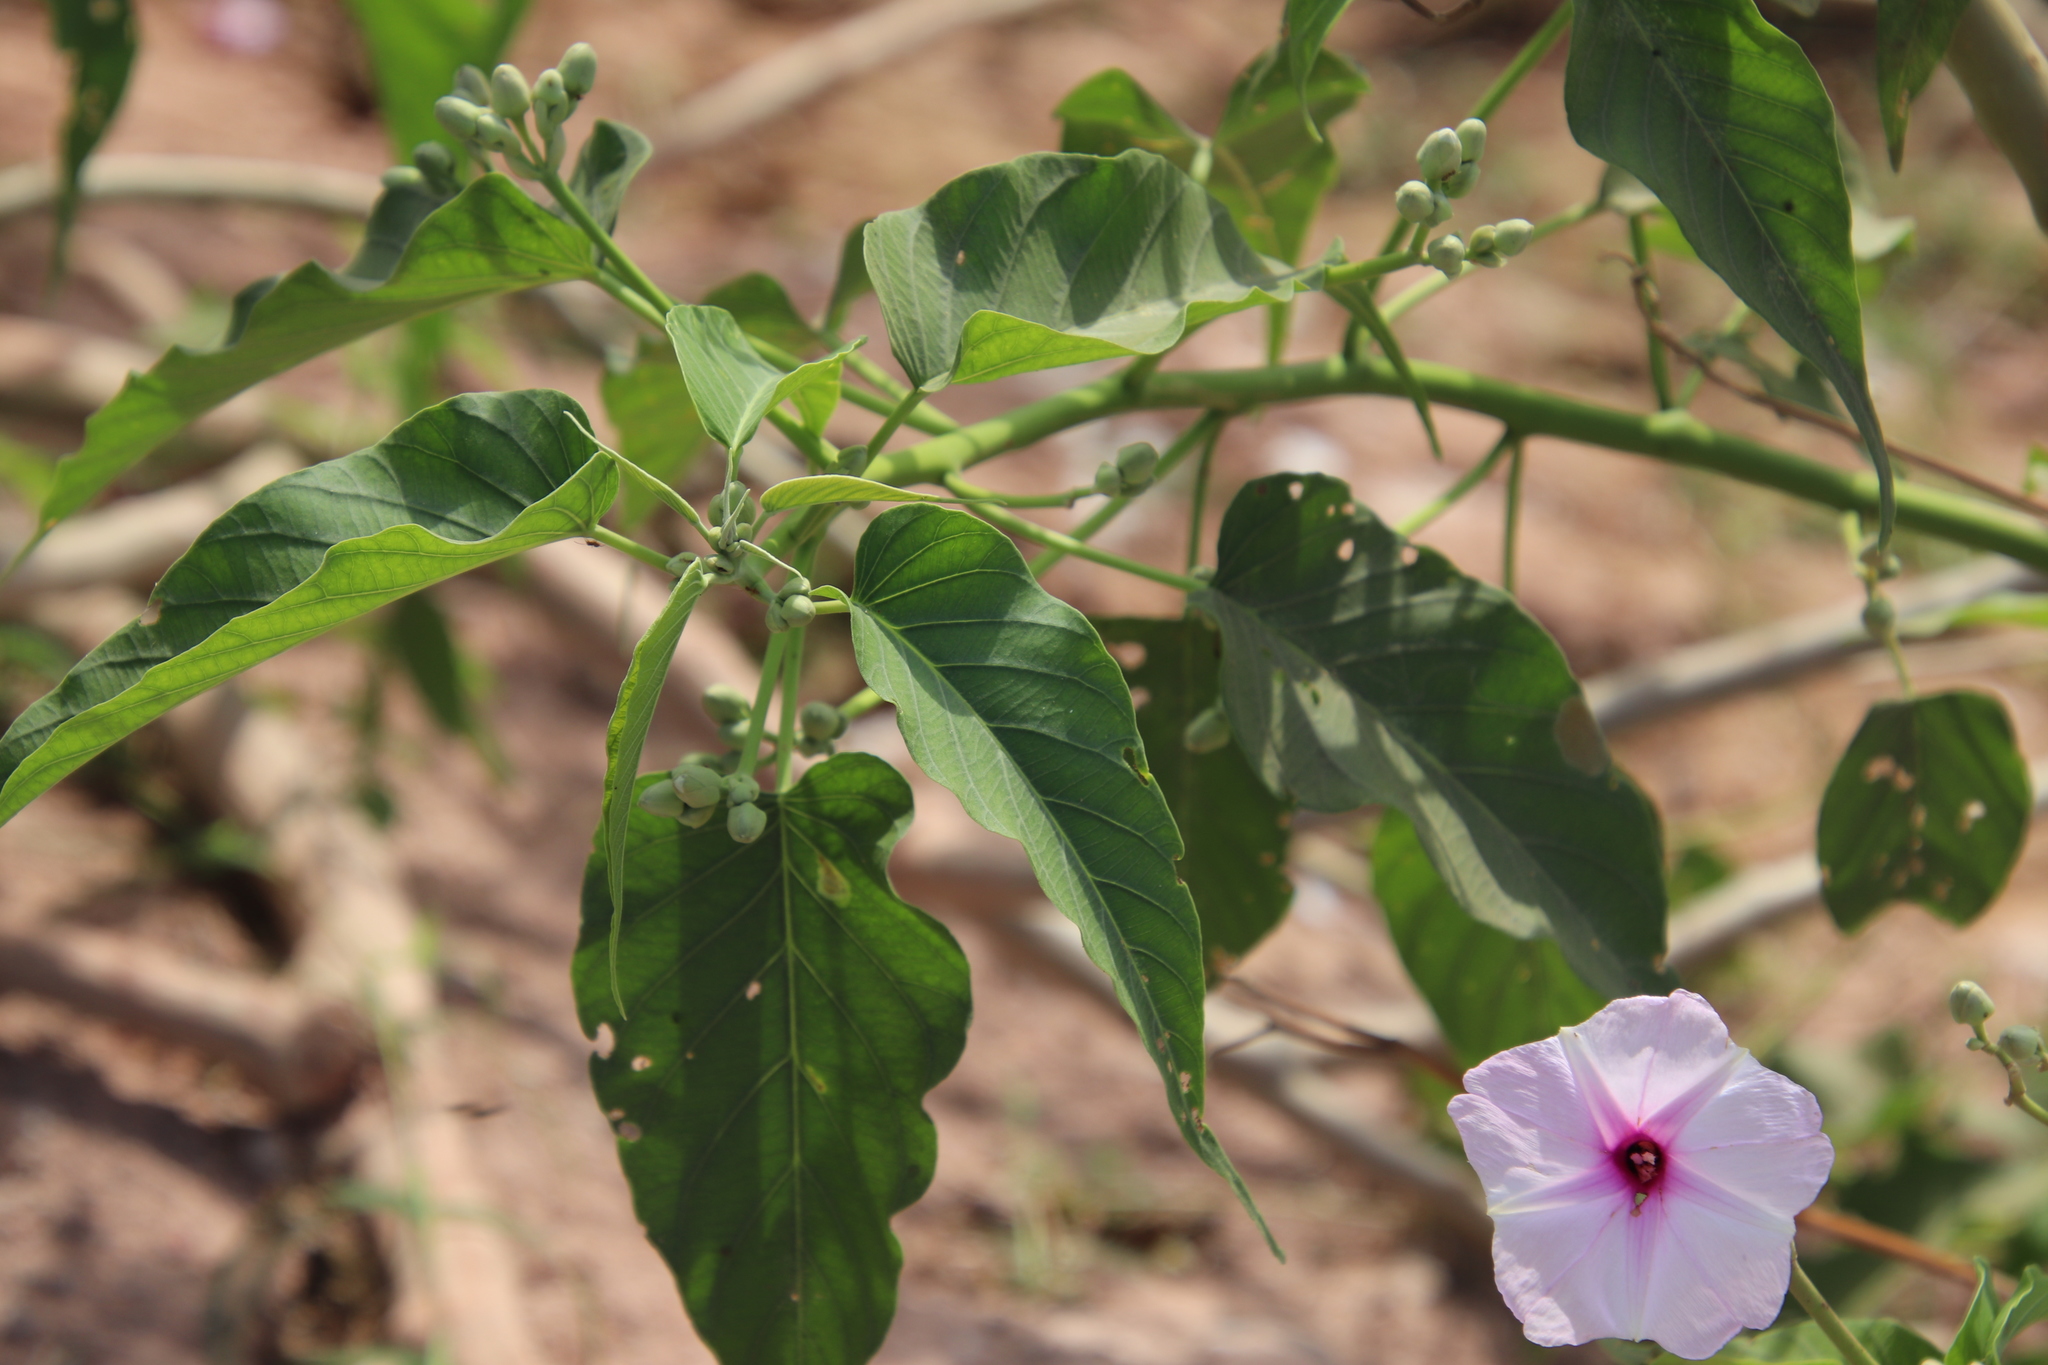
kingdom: Plantae
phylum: Tracheophyta
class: Magnoliopsida
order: Solanales
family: Convolvulaceae
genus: Ipomoea
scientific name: Ipomoea carnea
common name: Morning-glory
